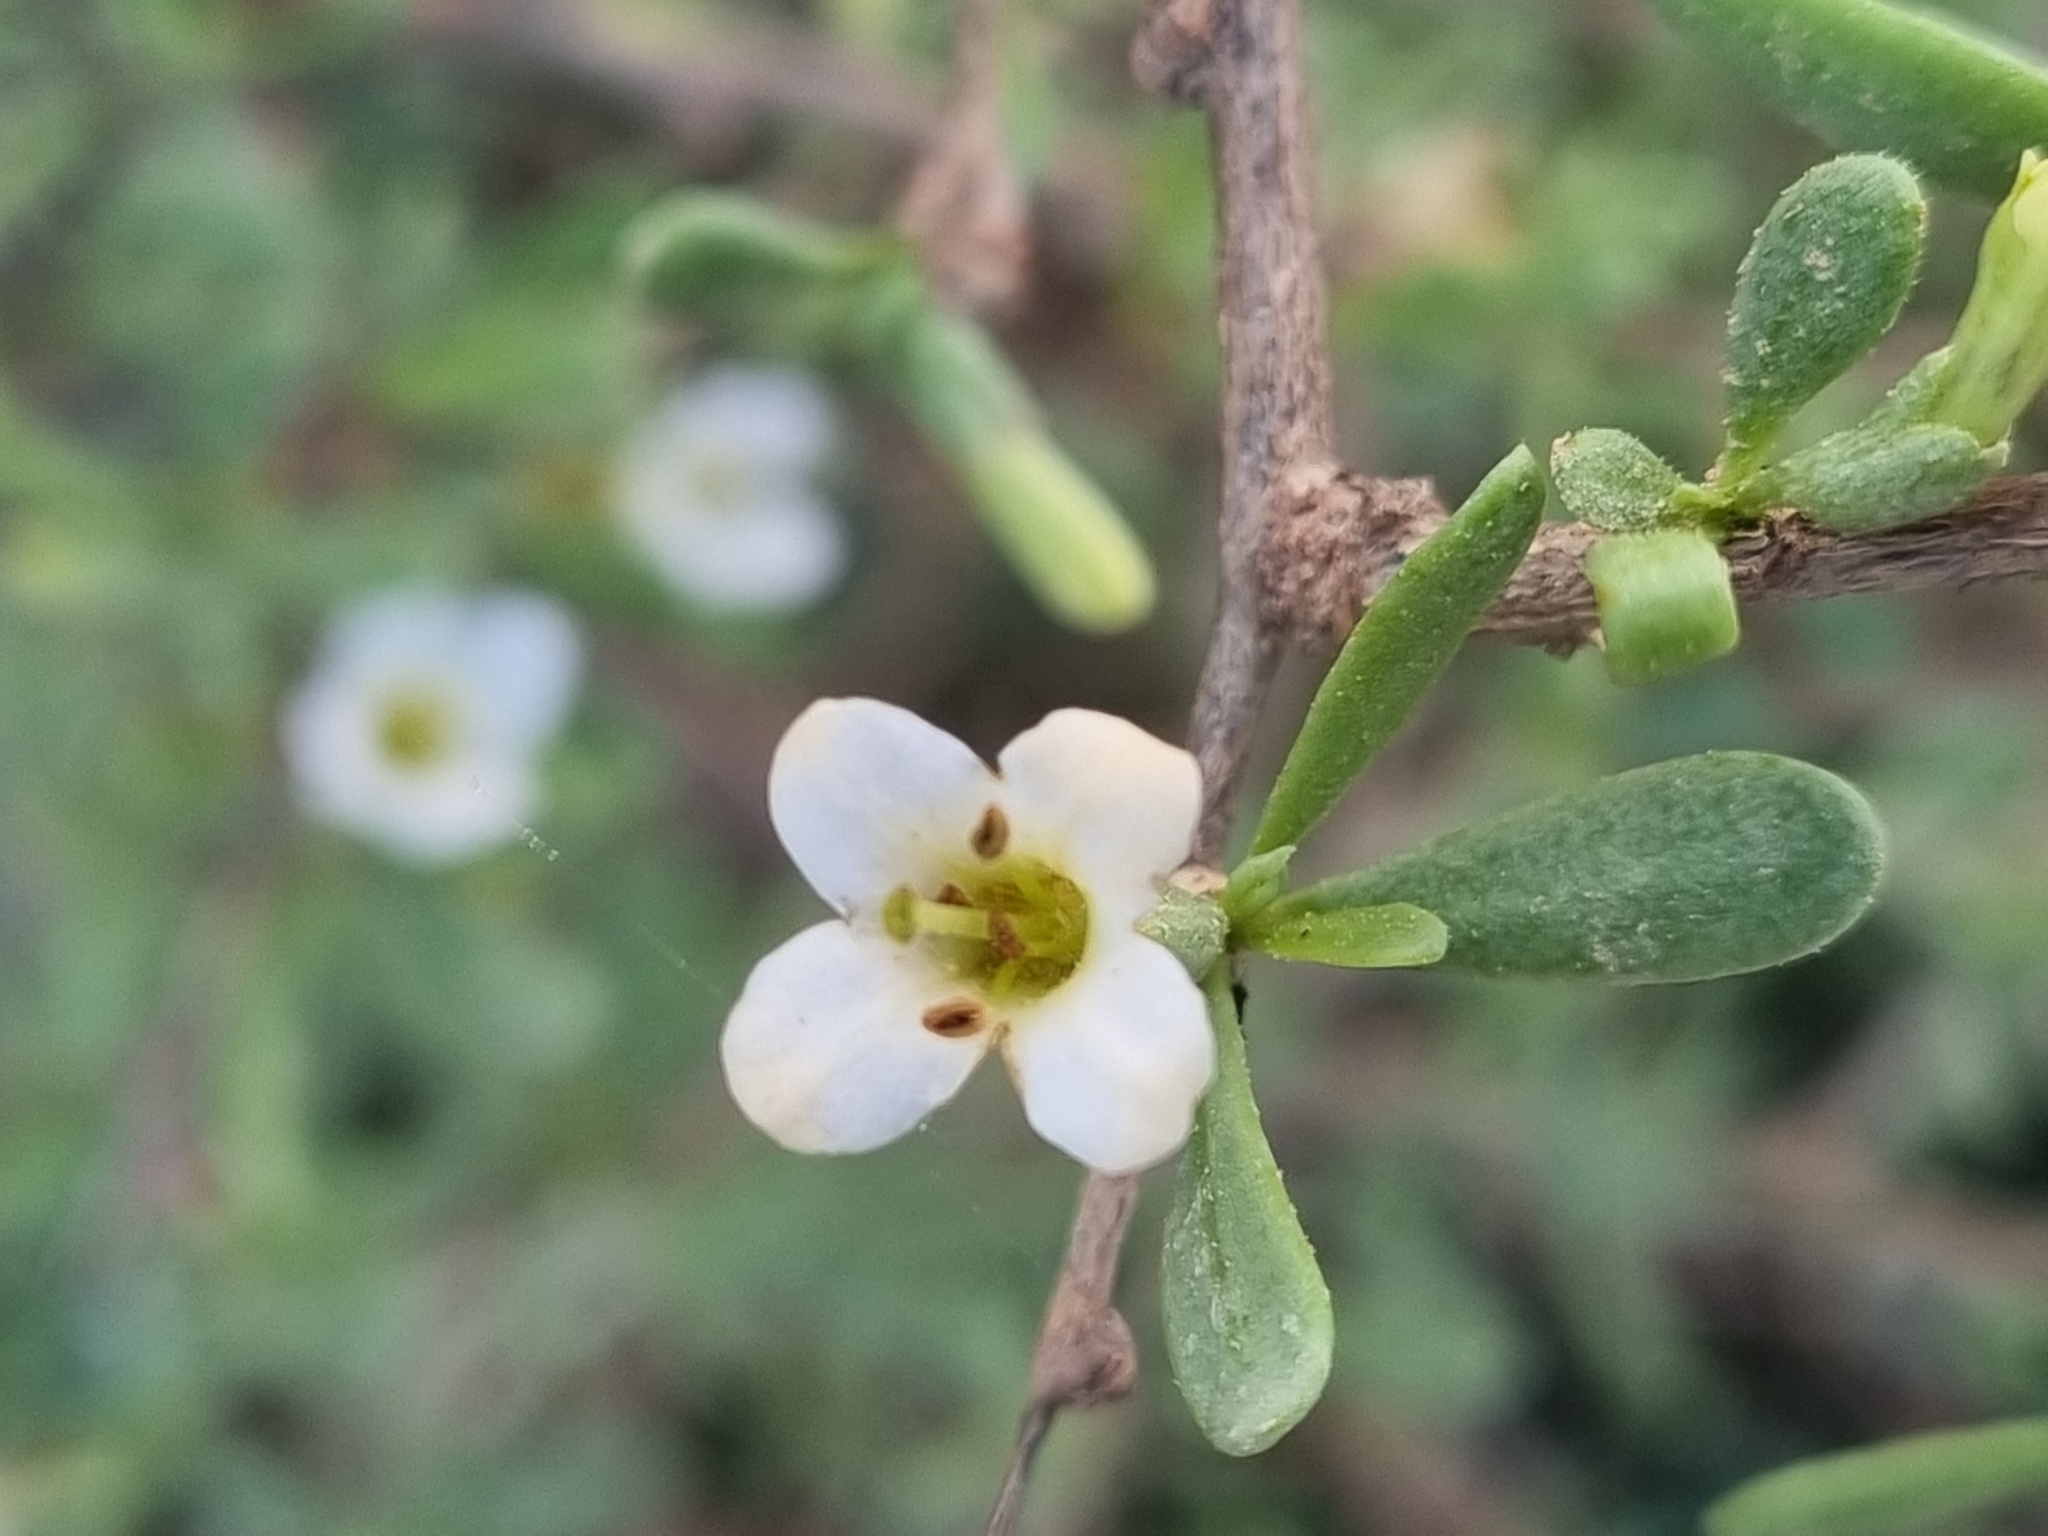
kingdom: Plantae
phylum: Tracheophyta
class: Magnoliopsida
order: Solanales
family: Solanaceae
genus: Lycium
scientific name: Lycium australe
